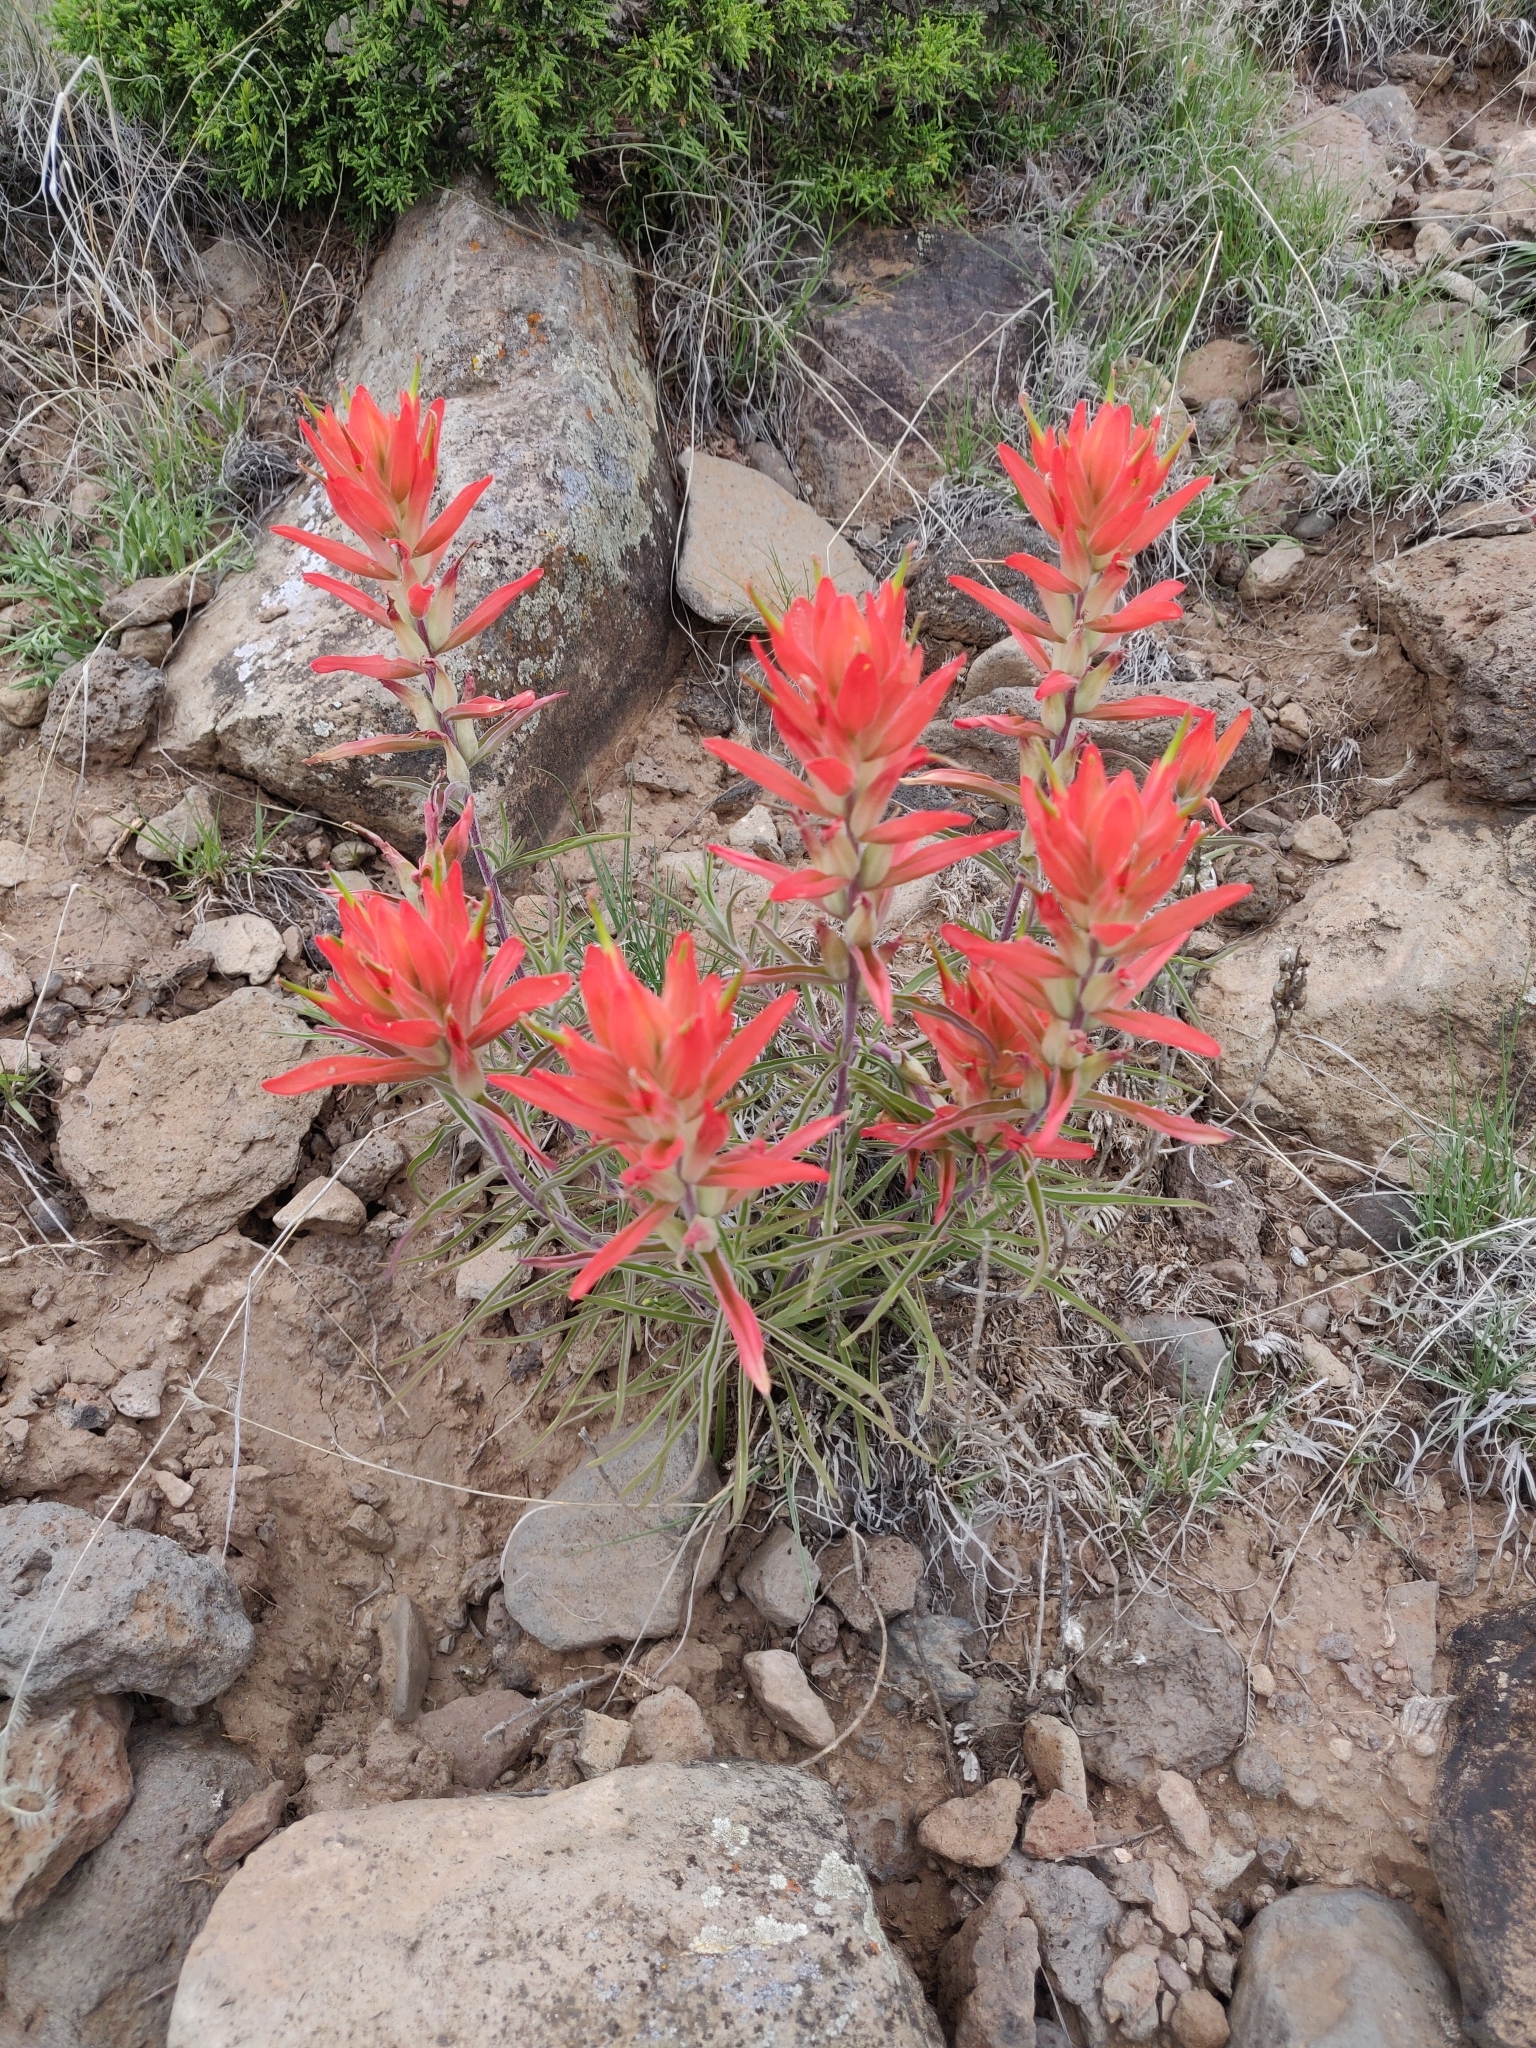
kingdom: Plantae
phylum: Tracheophyta
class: Magnoliopsida
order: Lamiales
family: Orobanchaceae
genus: Castilleja
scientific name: Castilleja integra
